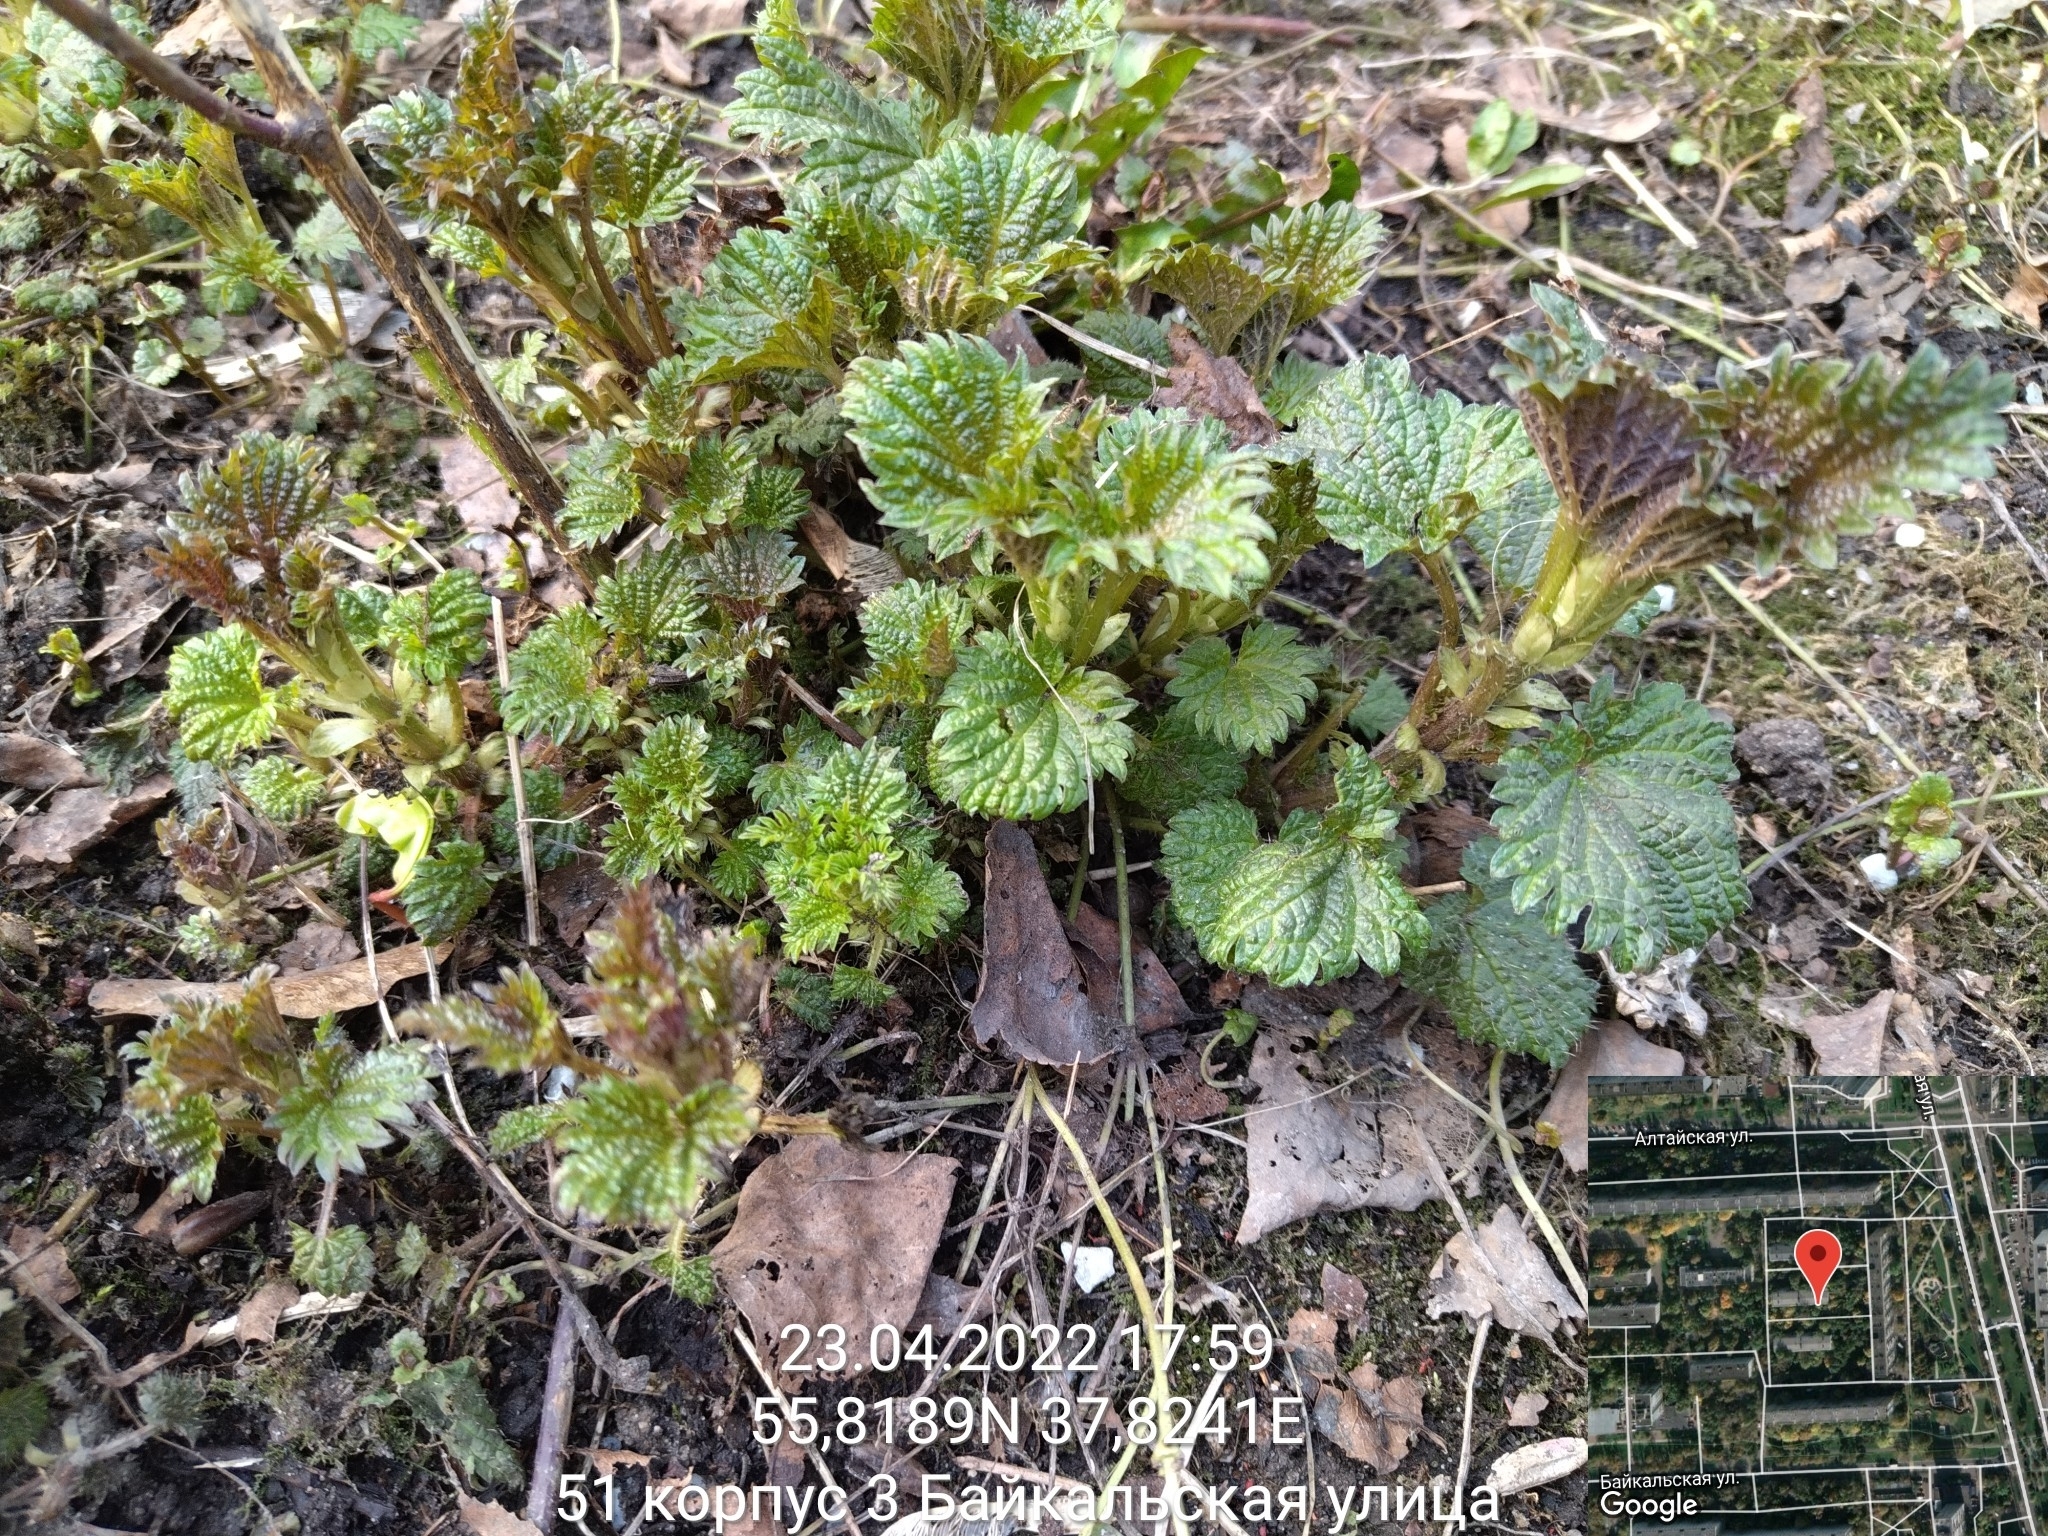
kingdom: Plantae
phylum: Tracheophyta
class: Magnoliopsida
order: Rosales
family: Urticaceae
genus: Urtica
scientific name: Urtica dioica
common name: Common nettle
